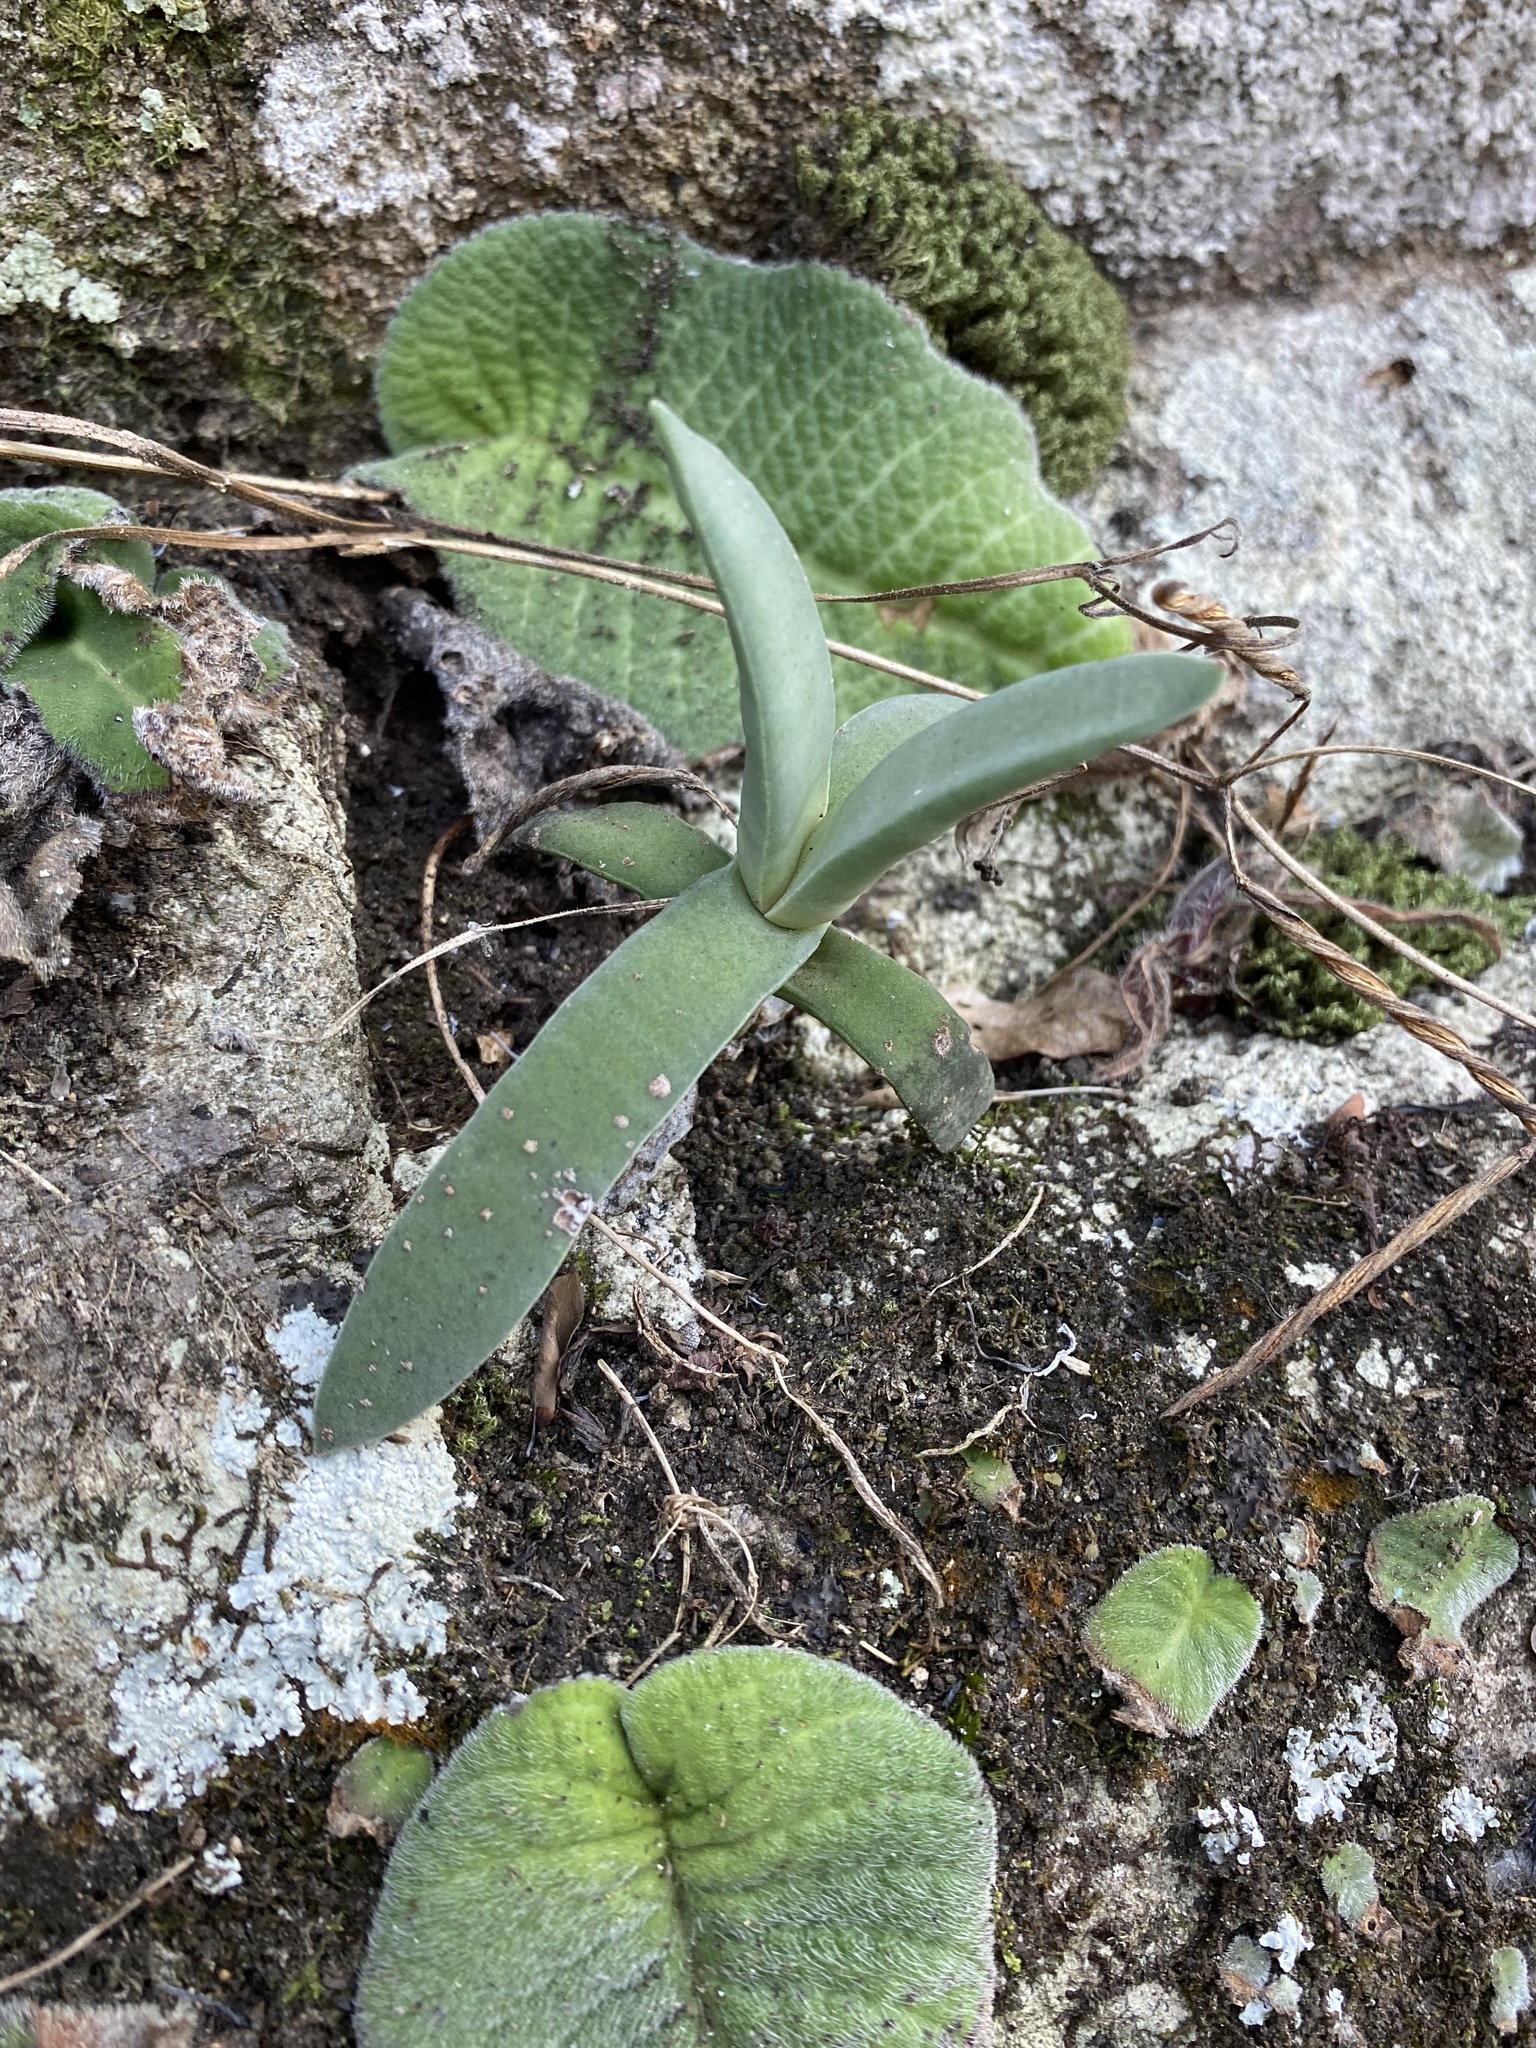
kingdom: Plantae
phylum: Tracheophyta
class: Magnoliopsida
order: Saxifragales
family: Crassulaceae
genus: Crassula
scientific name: Crassula perfoliata
